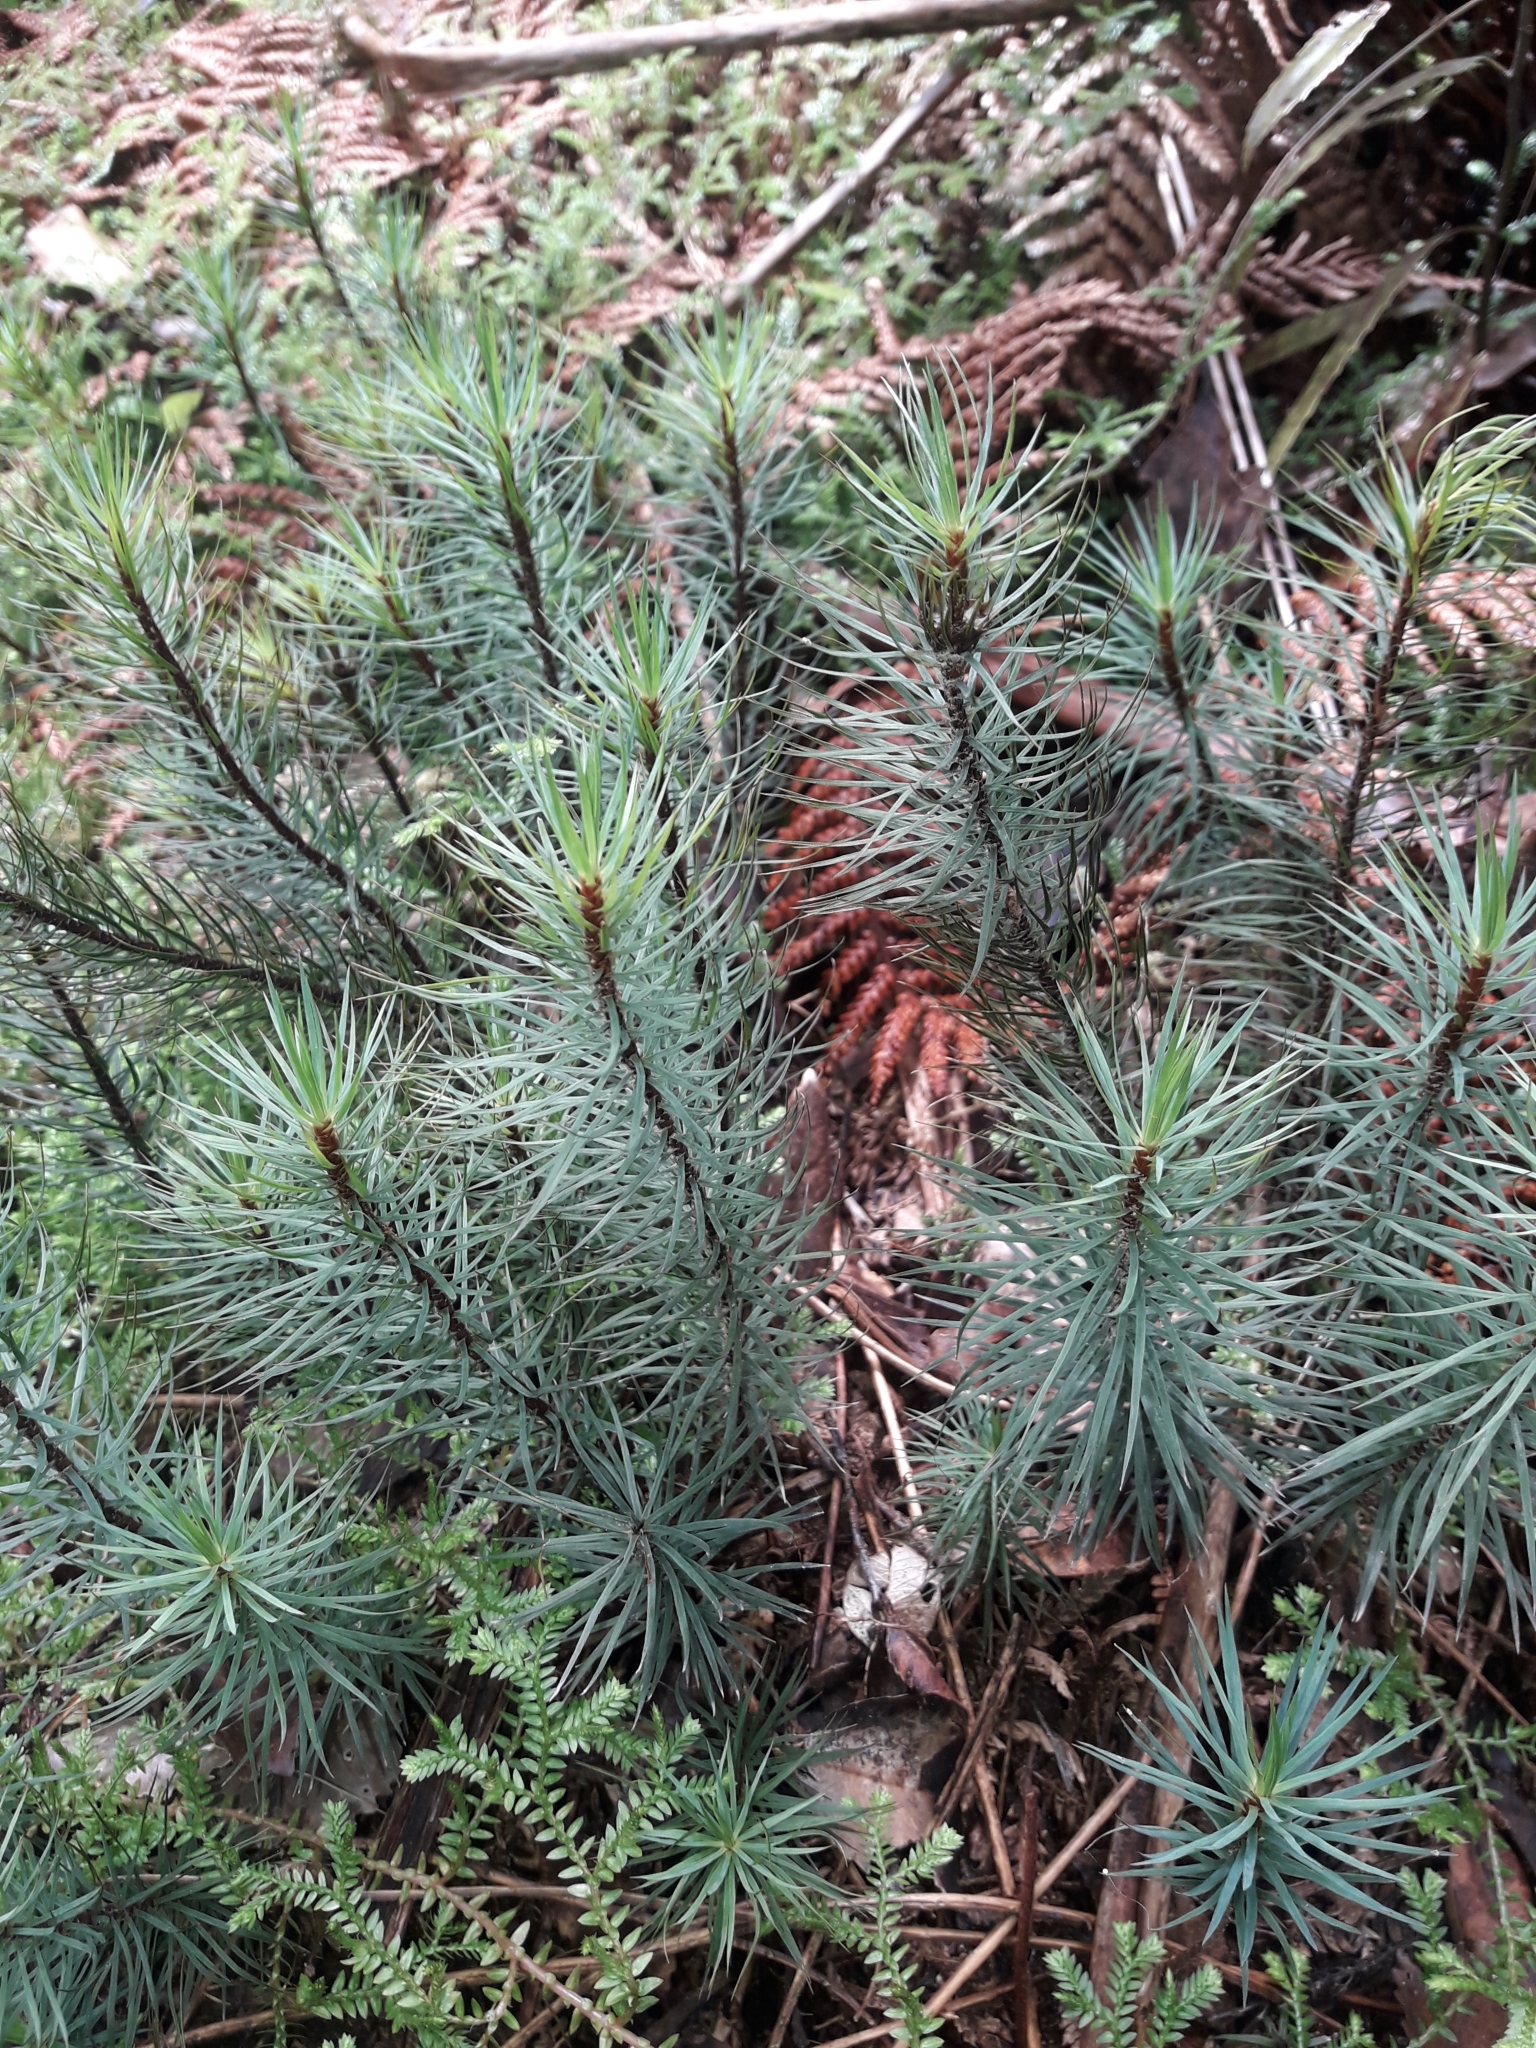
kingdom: Plantae
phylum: Bryophyta
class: Polytrichopsida
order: Polytrichales
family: Polytrichaceae
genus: Dawsonia
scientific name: Dawsonia superba
